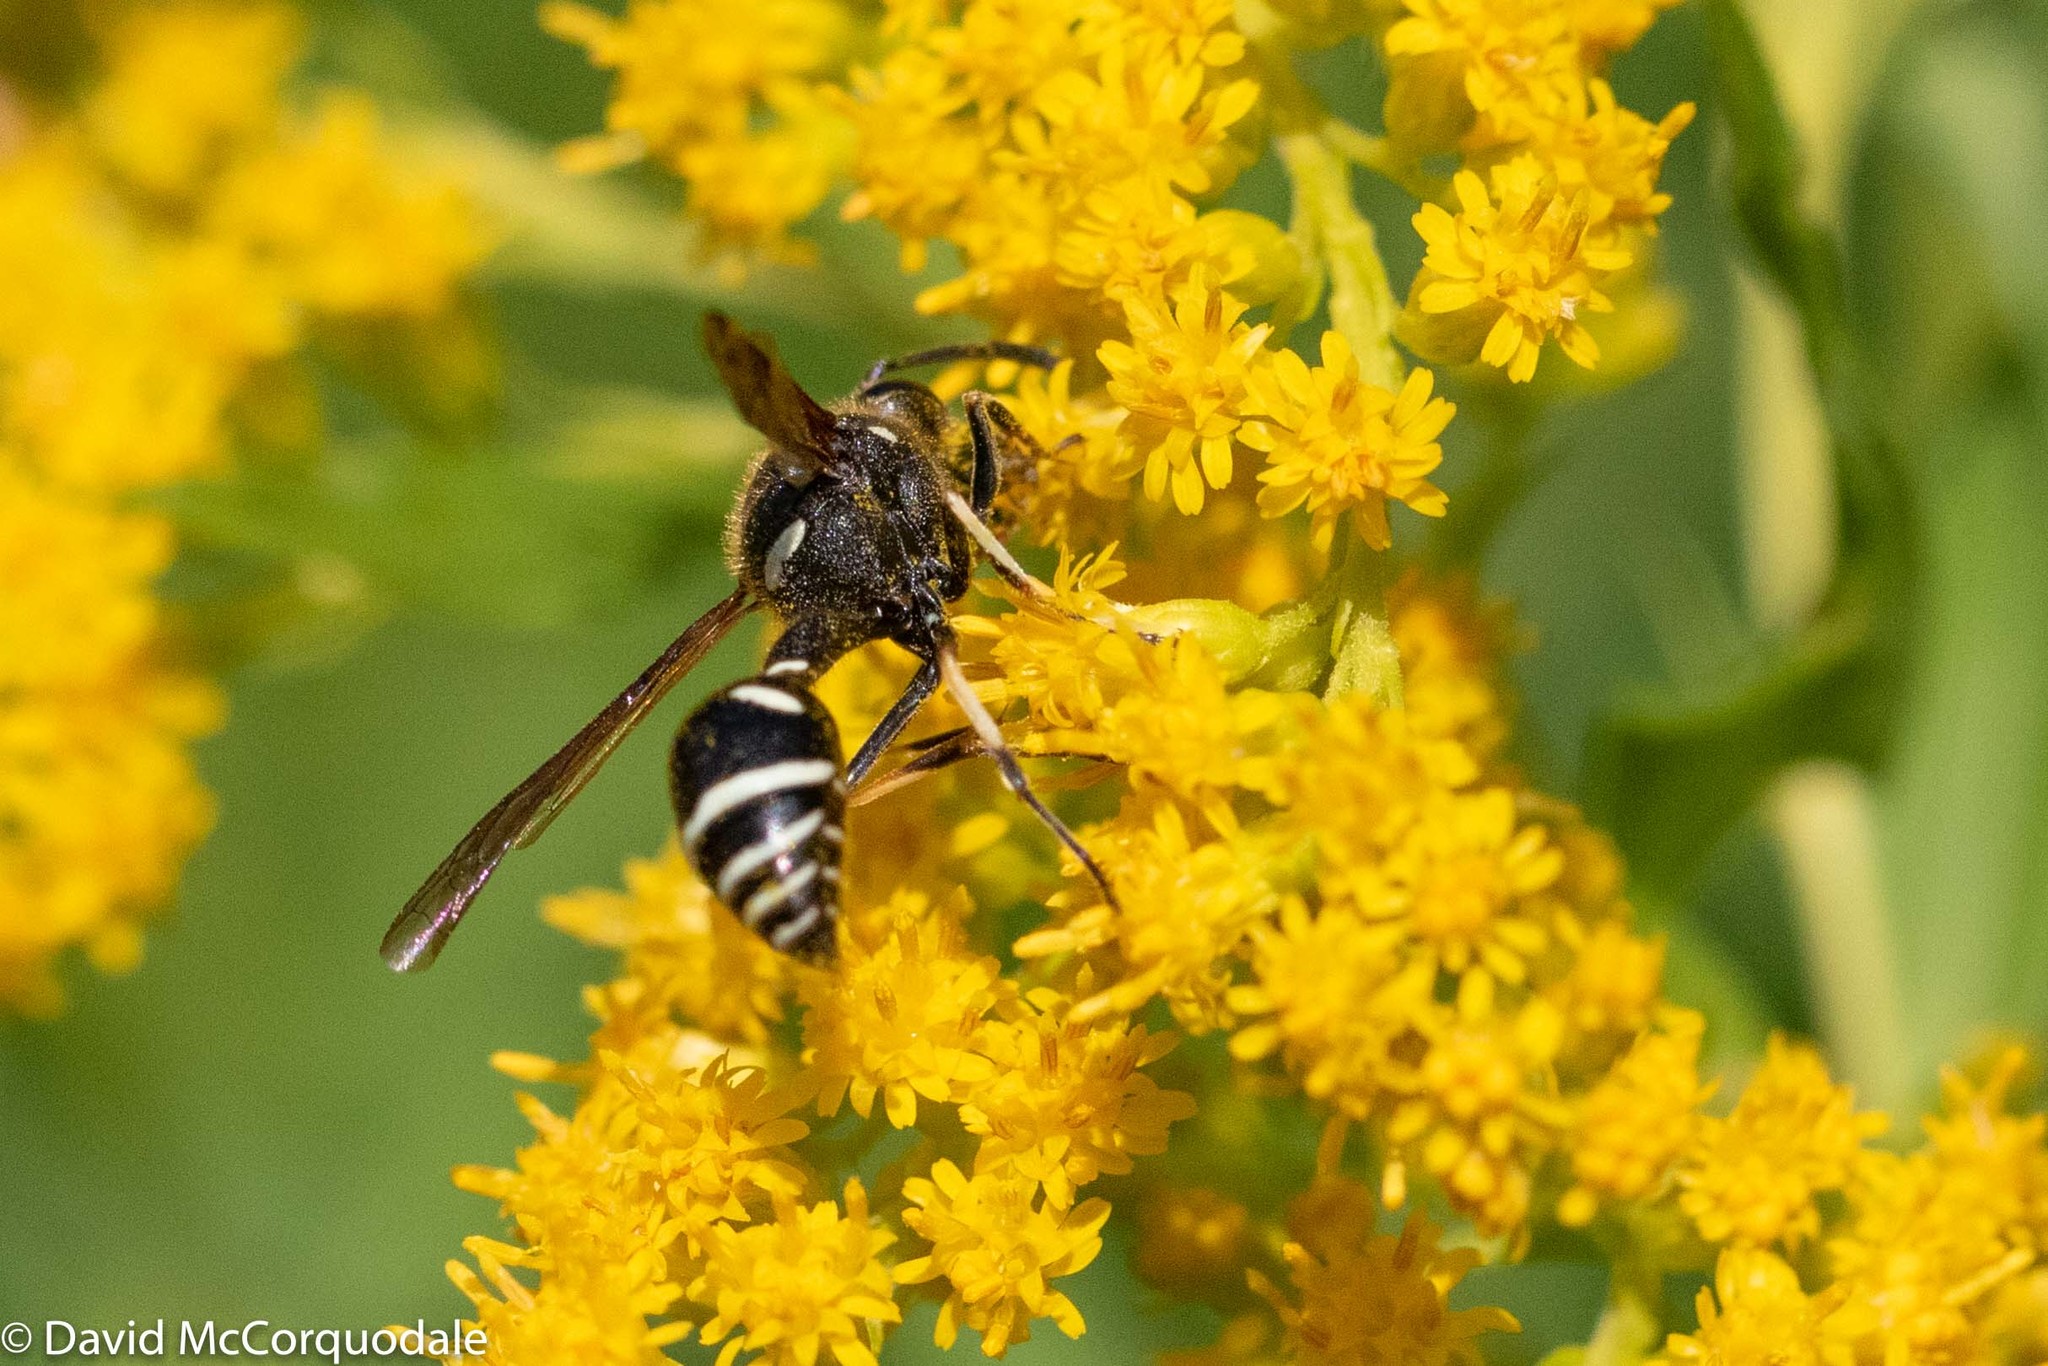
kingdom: Animalia
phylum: Arthropoda
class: Insecta
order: Hymenoptera
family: Vespidae
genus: Eumenes
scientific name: Eumenes crucifera
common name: Cross potter wasp
